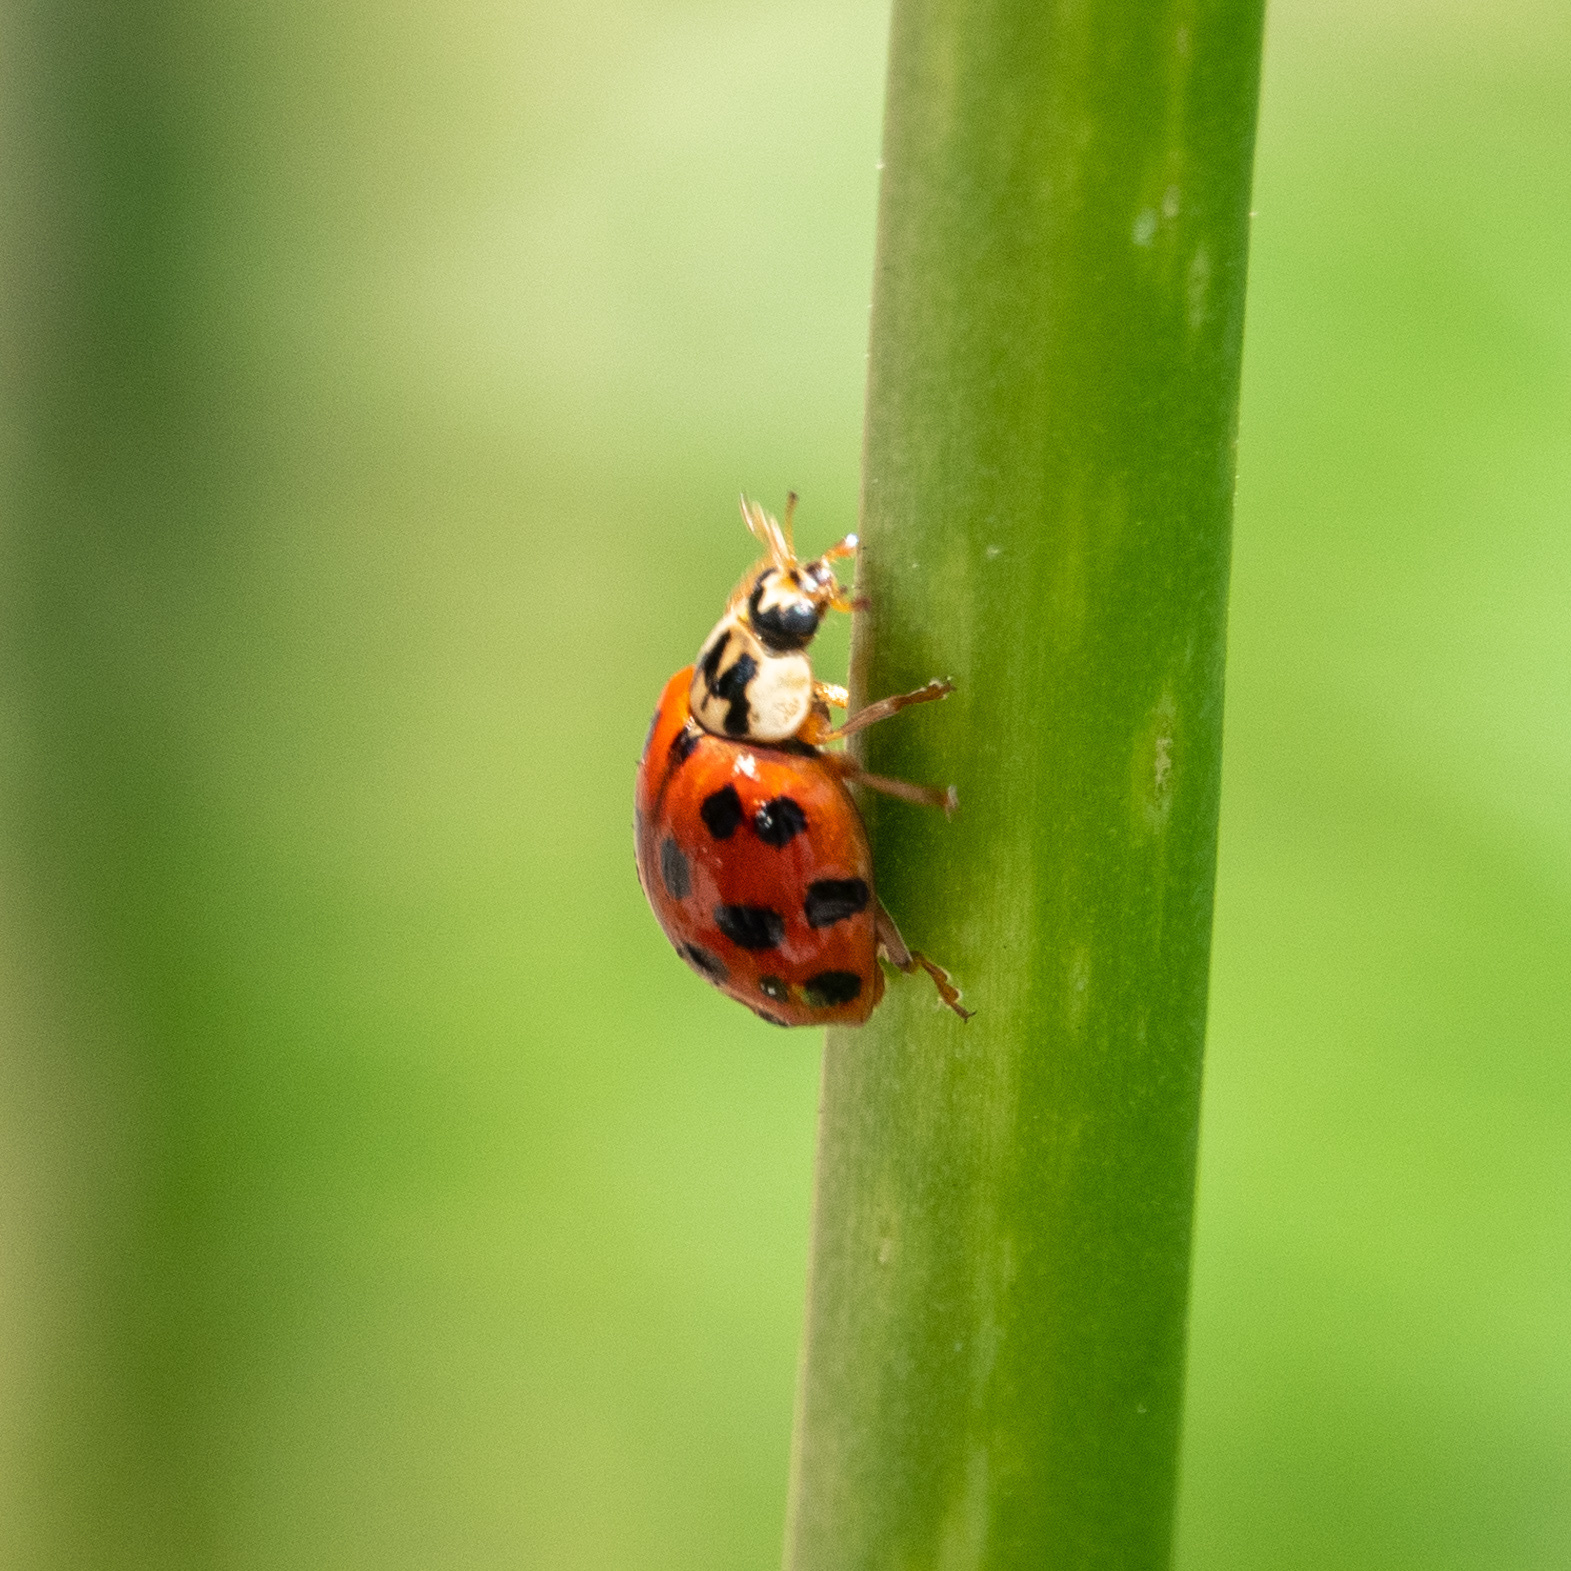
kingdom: Animalia
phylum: Arthropoda
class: Insecta
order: Coleoptera
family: Coccinellidae
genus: Harmonia
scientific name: Harmonia axyridis
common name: Harlequin ladybird
